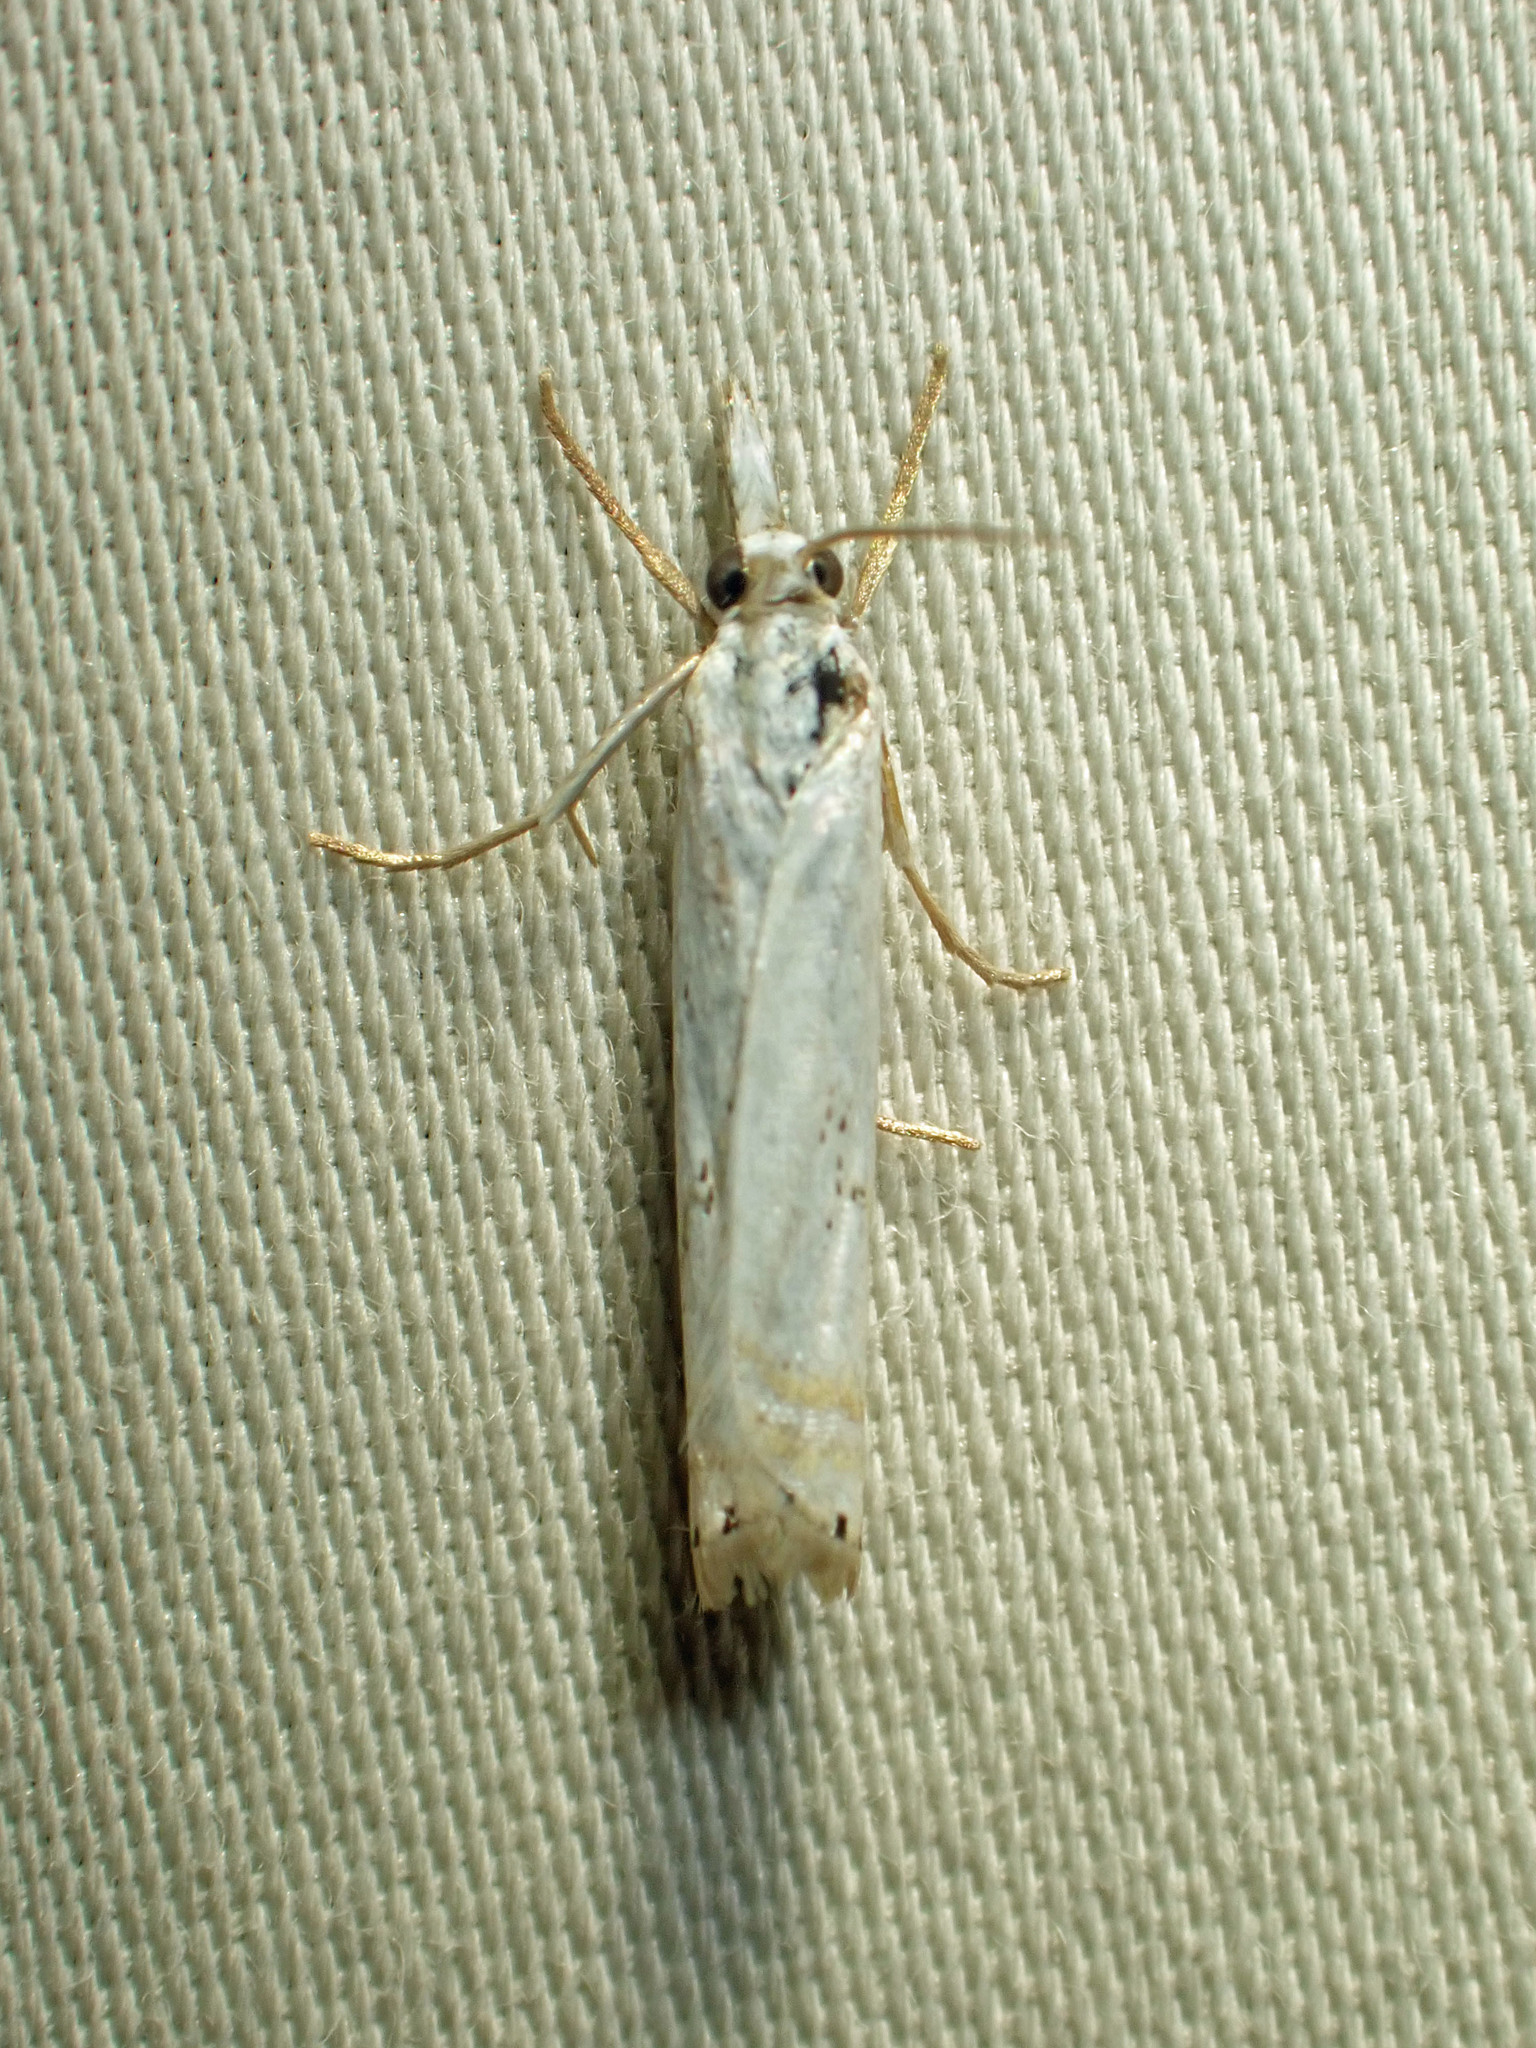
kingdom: Animalia
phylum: Arthropoda
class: Insecta
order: Lepidoptera
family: Crambidae
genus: Crambus
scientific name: Crambus albellus
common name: Small white grass-veneer
